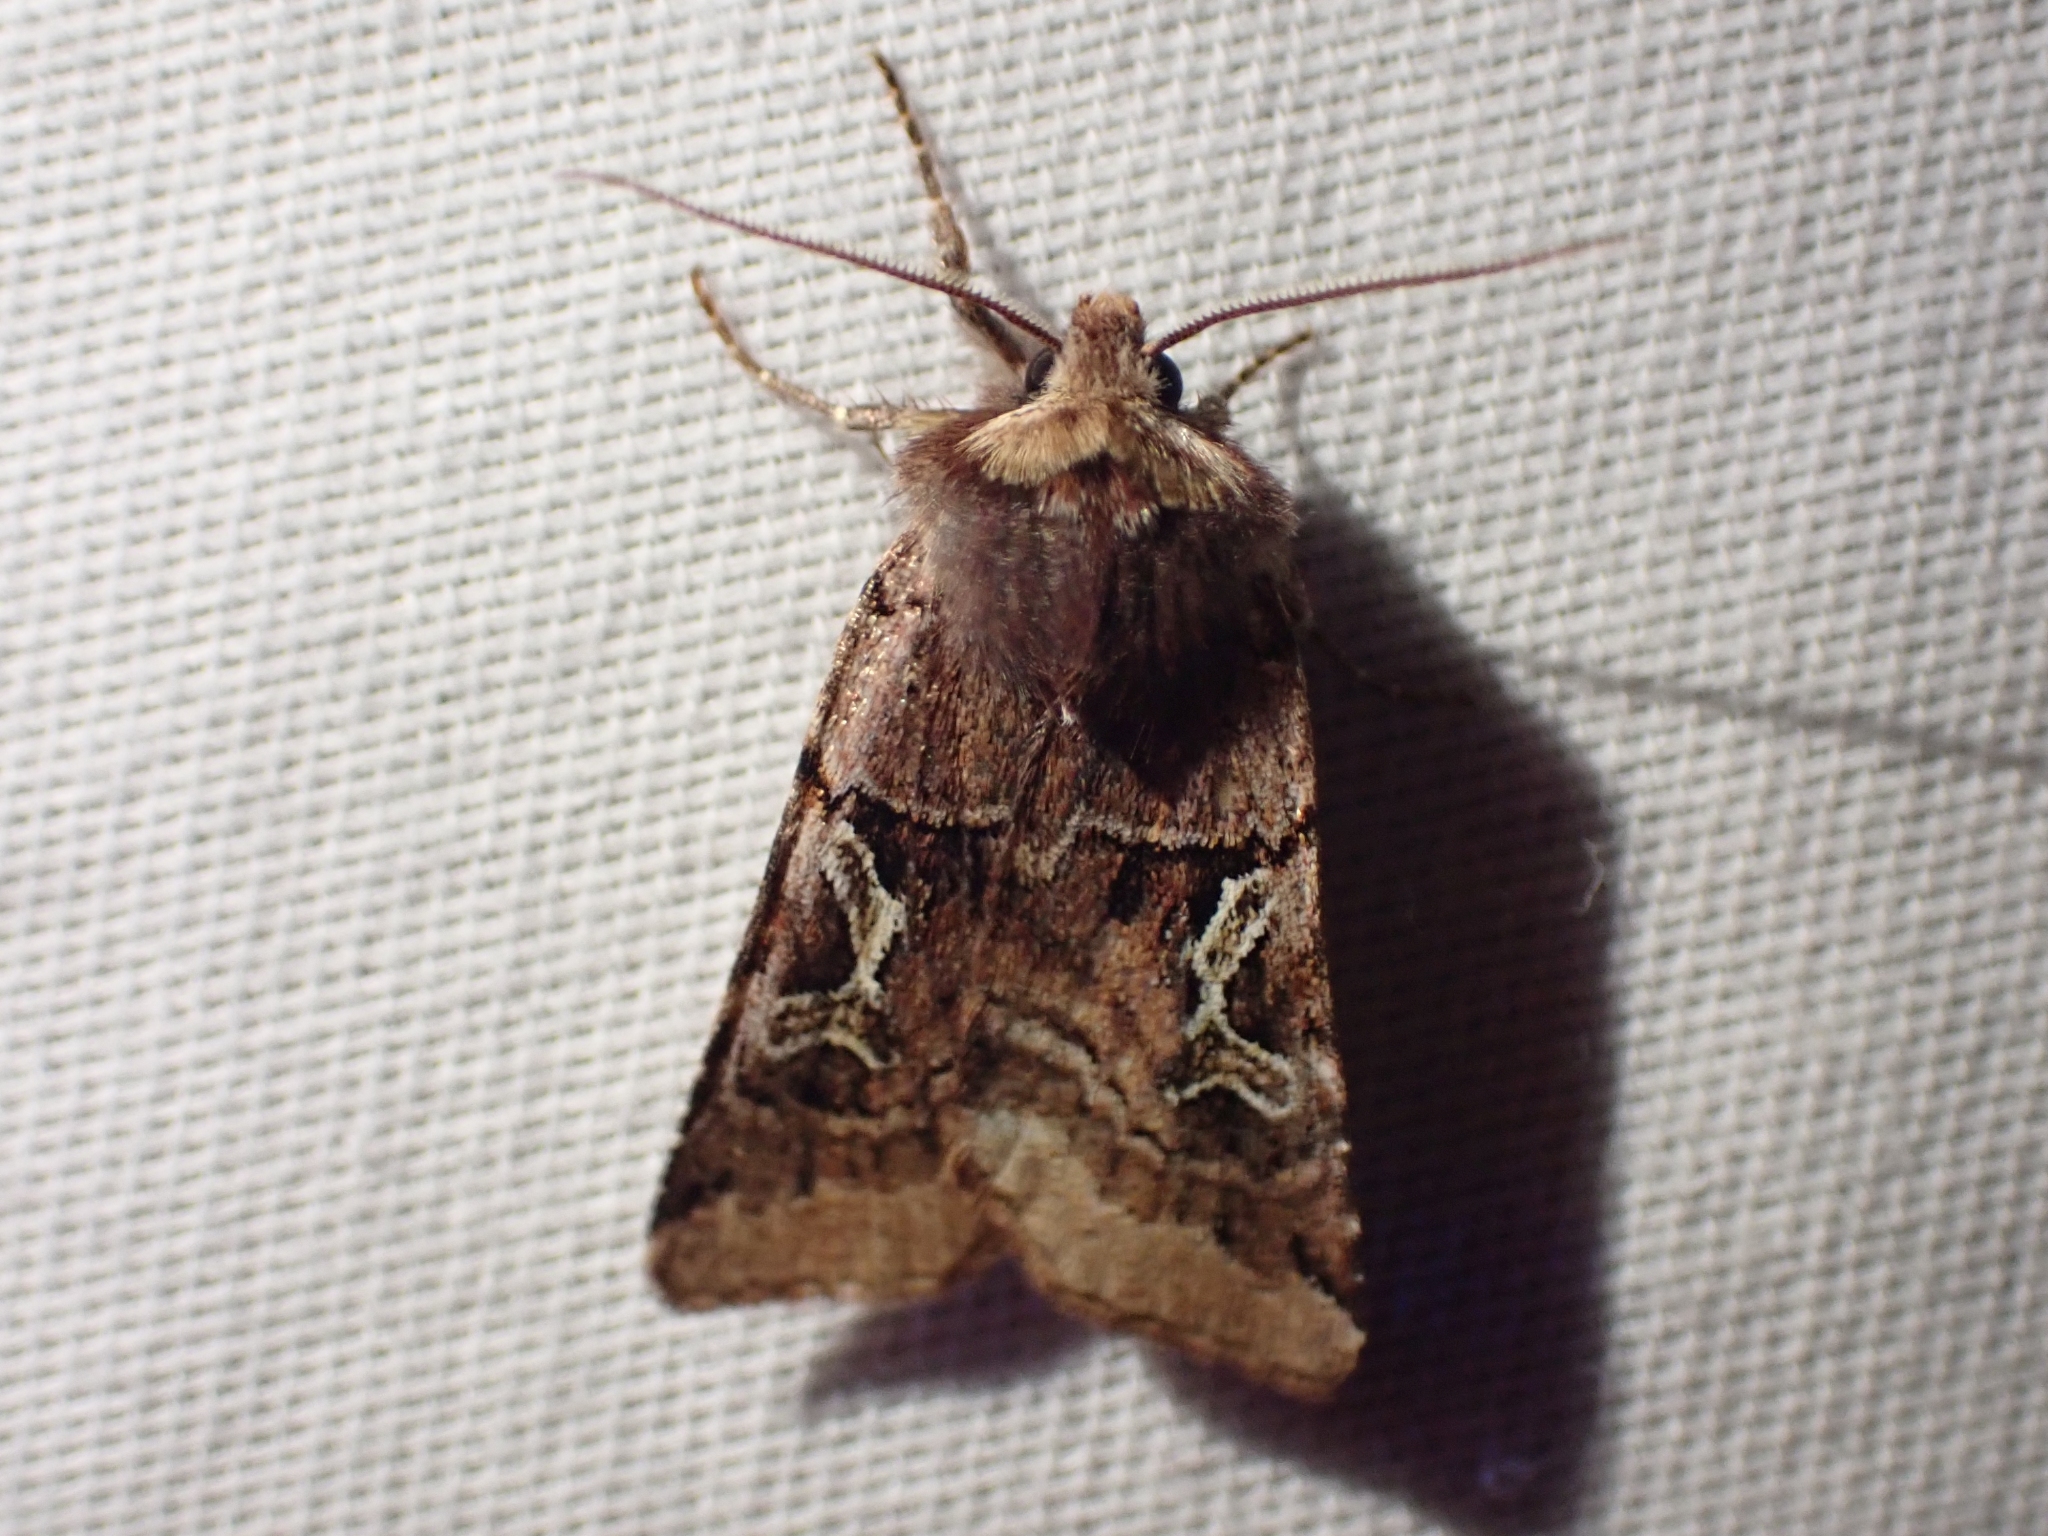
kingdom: Animalia
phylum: Arthropoda
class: Insecta
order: Lepidoptera
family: Noctuidae
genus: Cerastis
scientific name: Cerastis enigmatica
